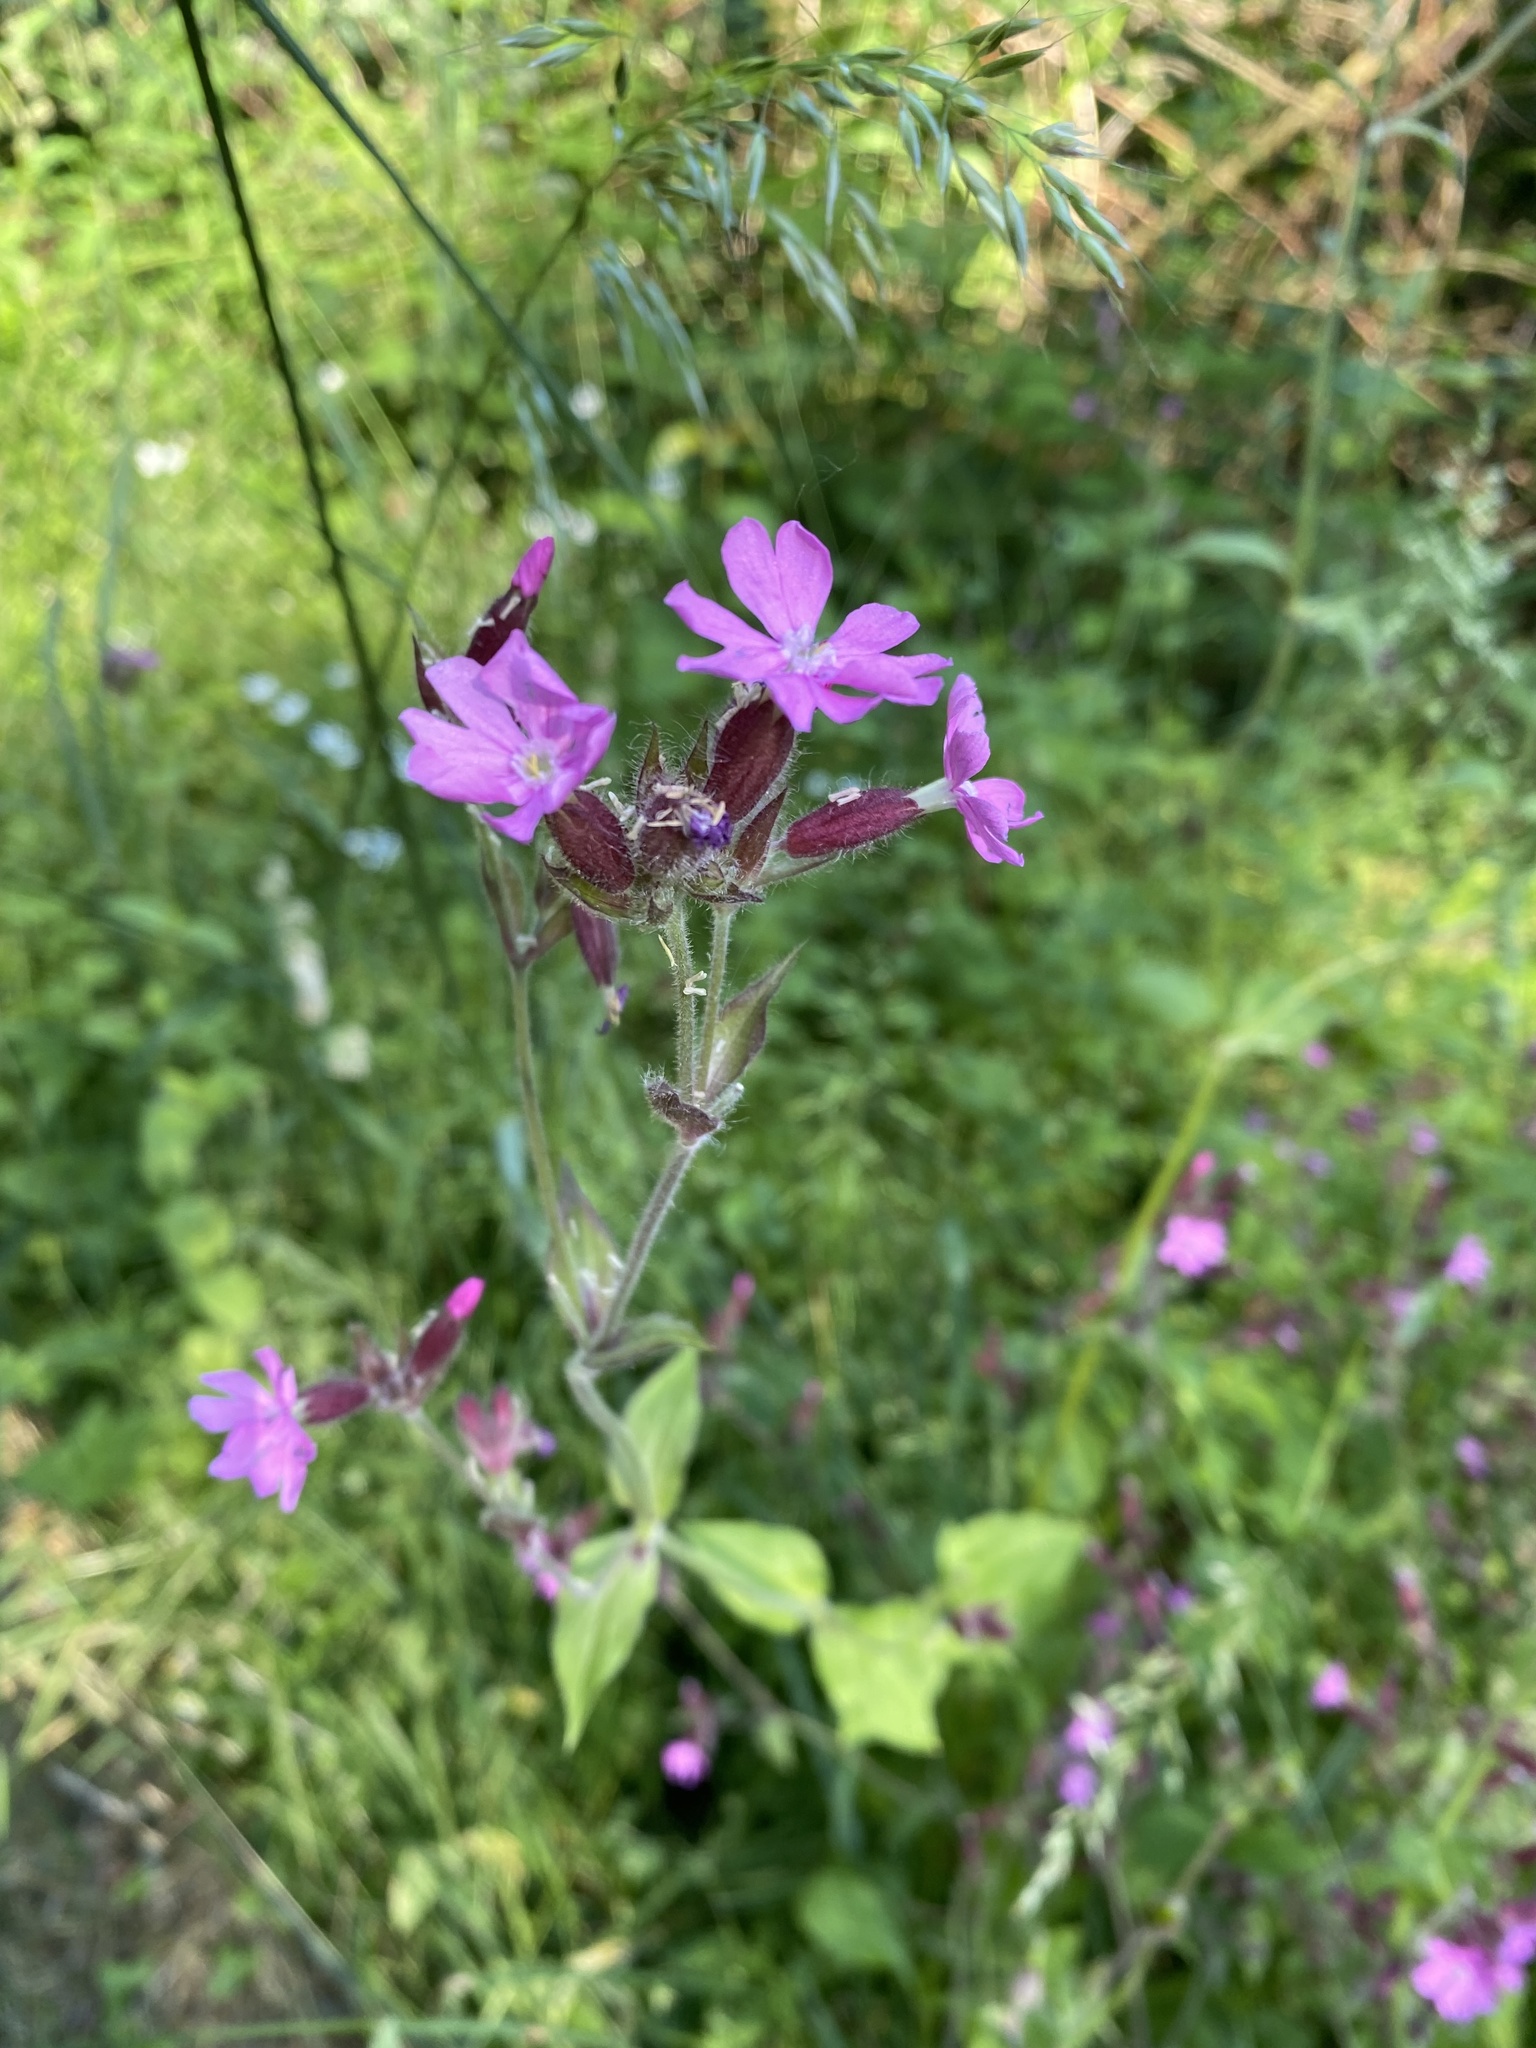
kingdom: Plantae
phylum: Tracheophyta
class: Magnoliopsida
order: Caryophyllales
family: Caryophyllaceae
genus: Silene
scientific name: Silene dioica
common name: Red campion
